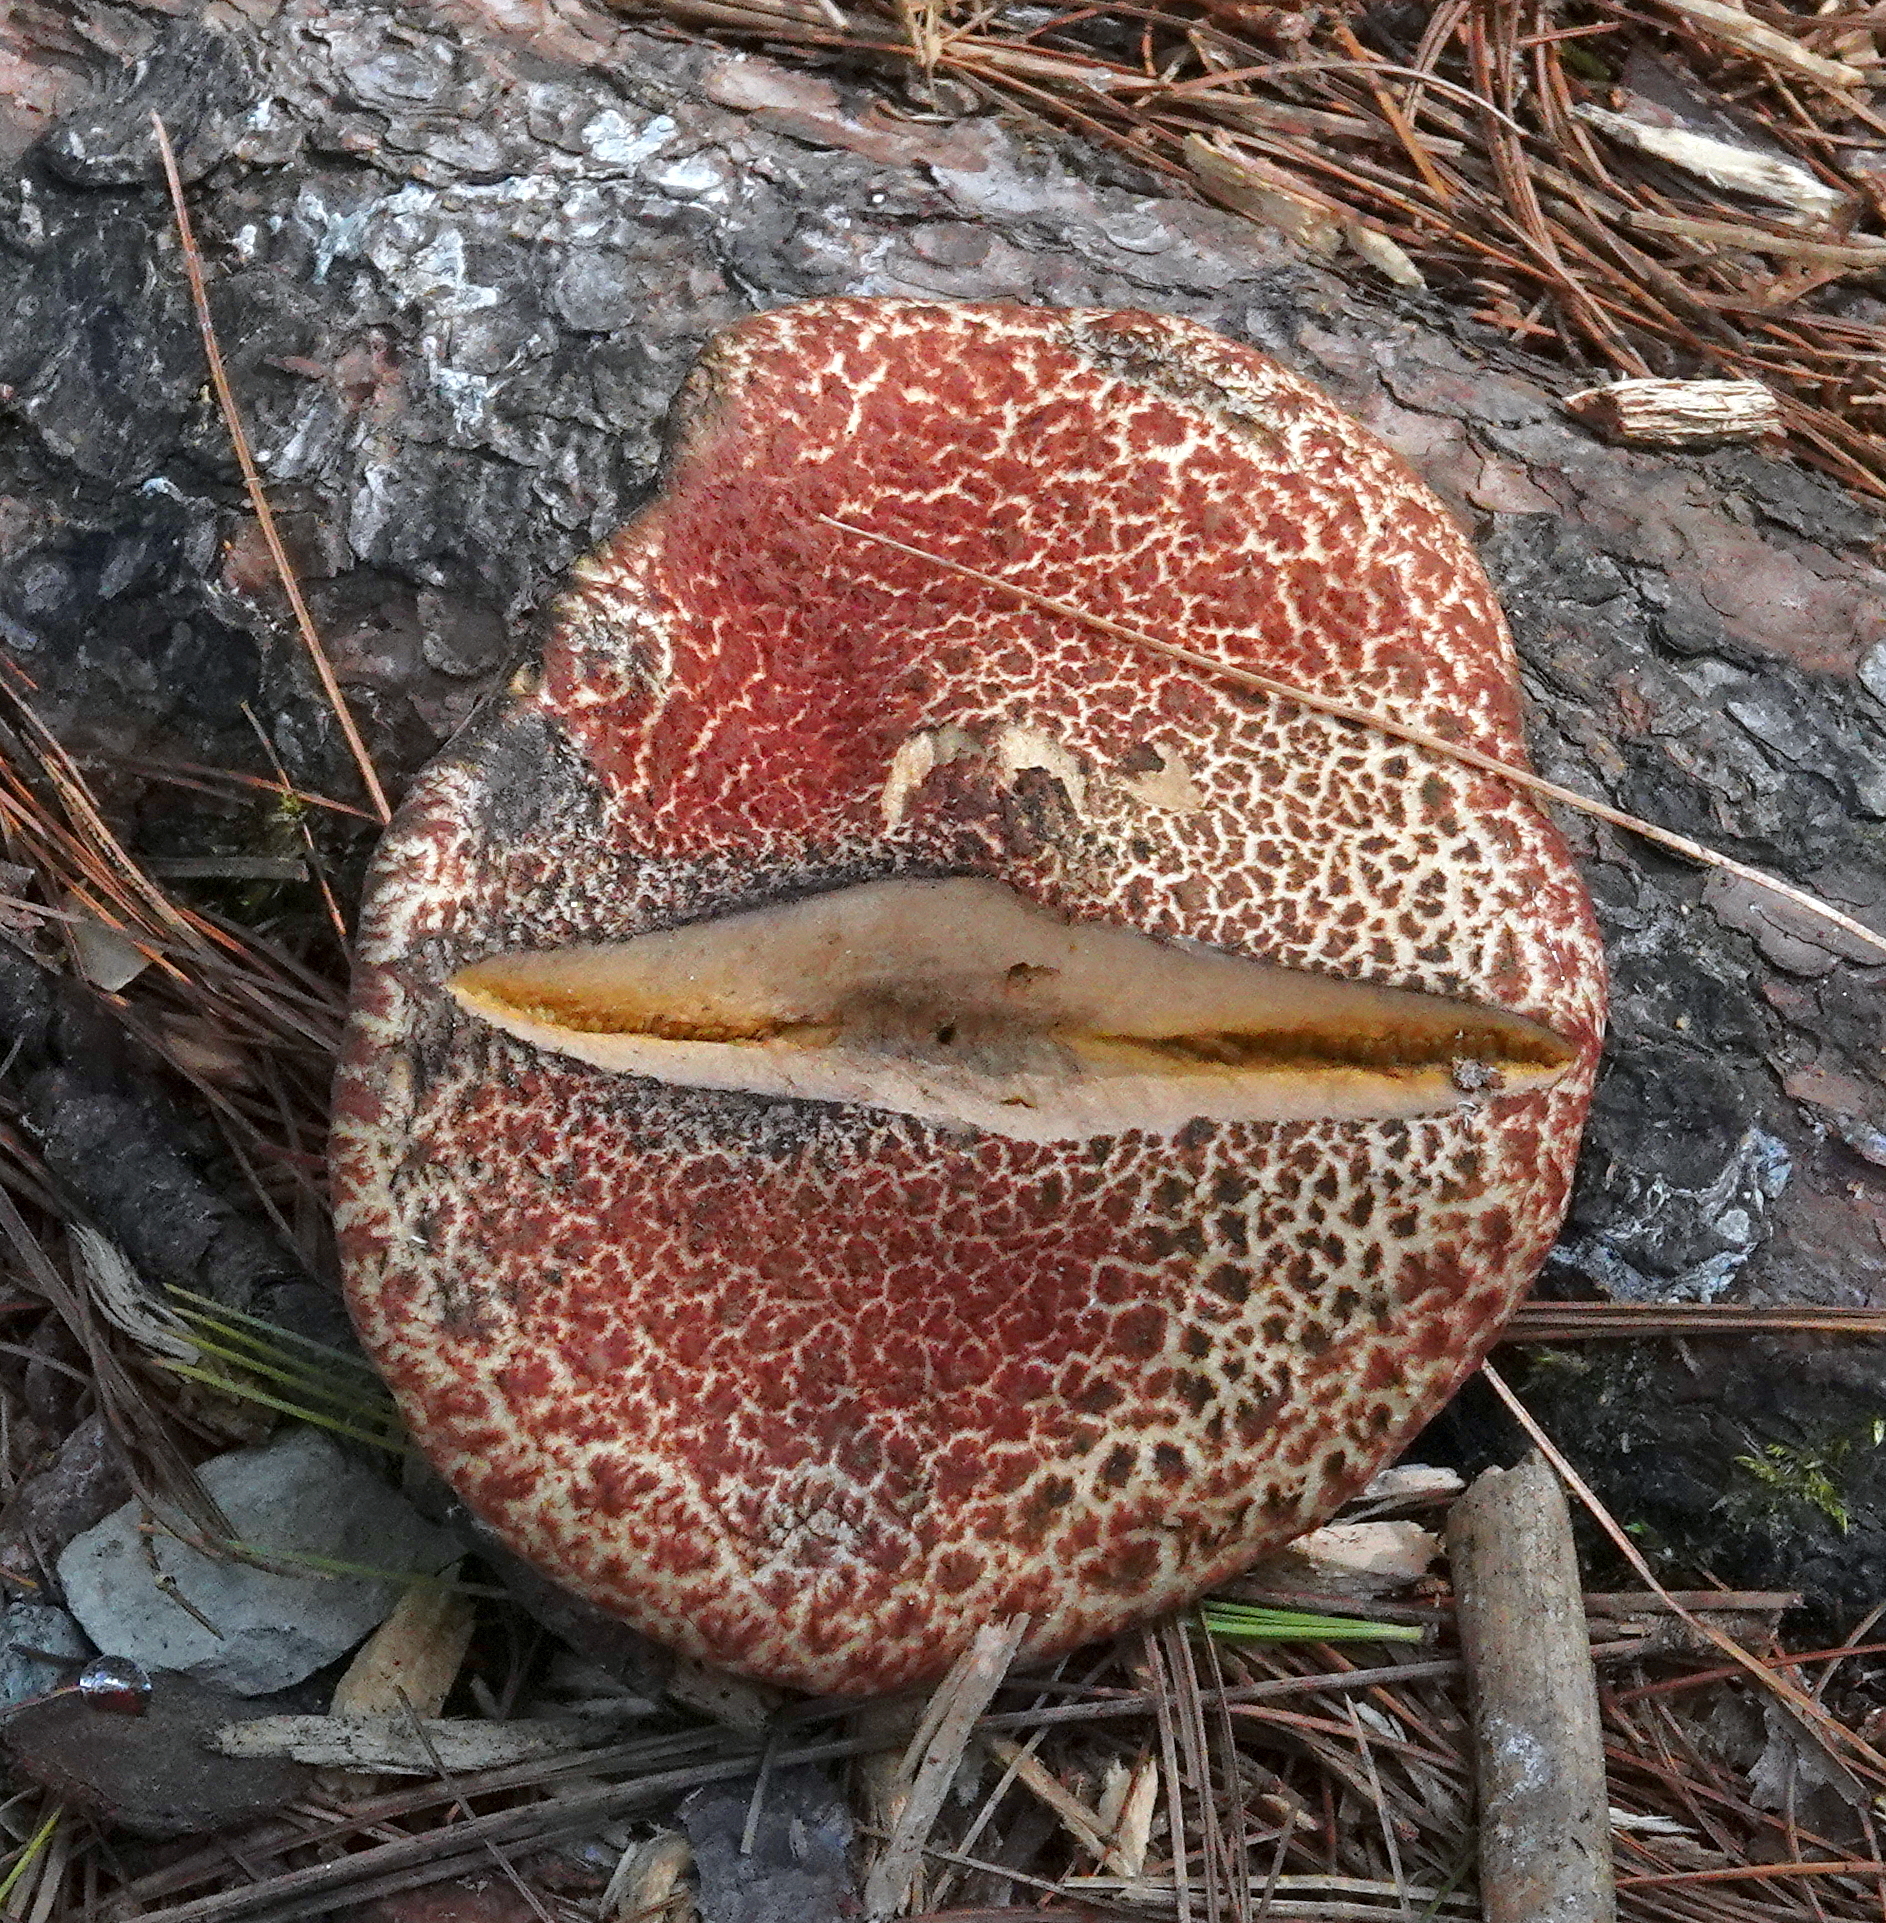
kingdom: Fungi
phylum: Basidiomycota
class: Agaricomycetes
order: Boletales
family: Suillaceae
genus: Suillus
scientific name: Suillus spraguei
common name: Painted suillus
